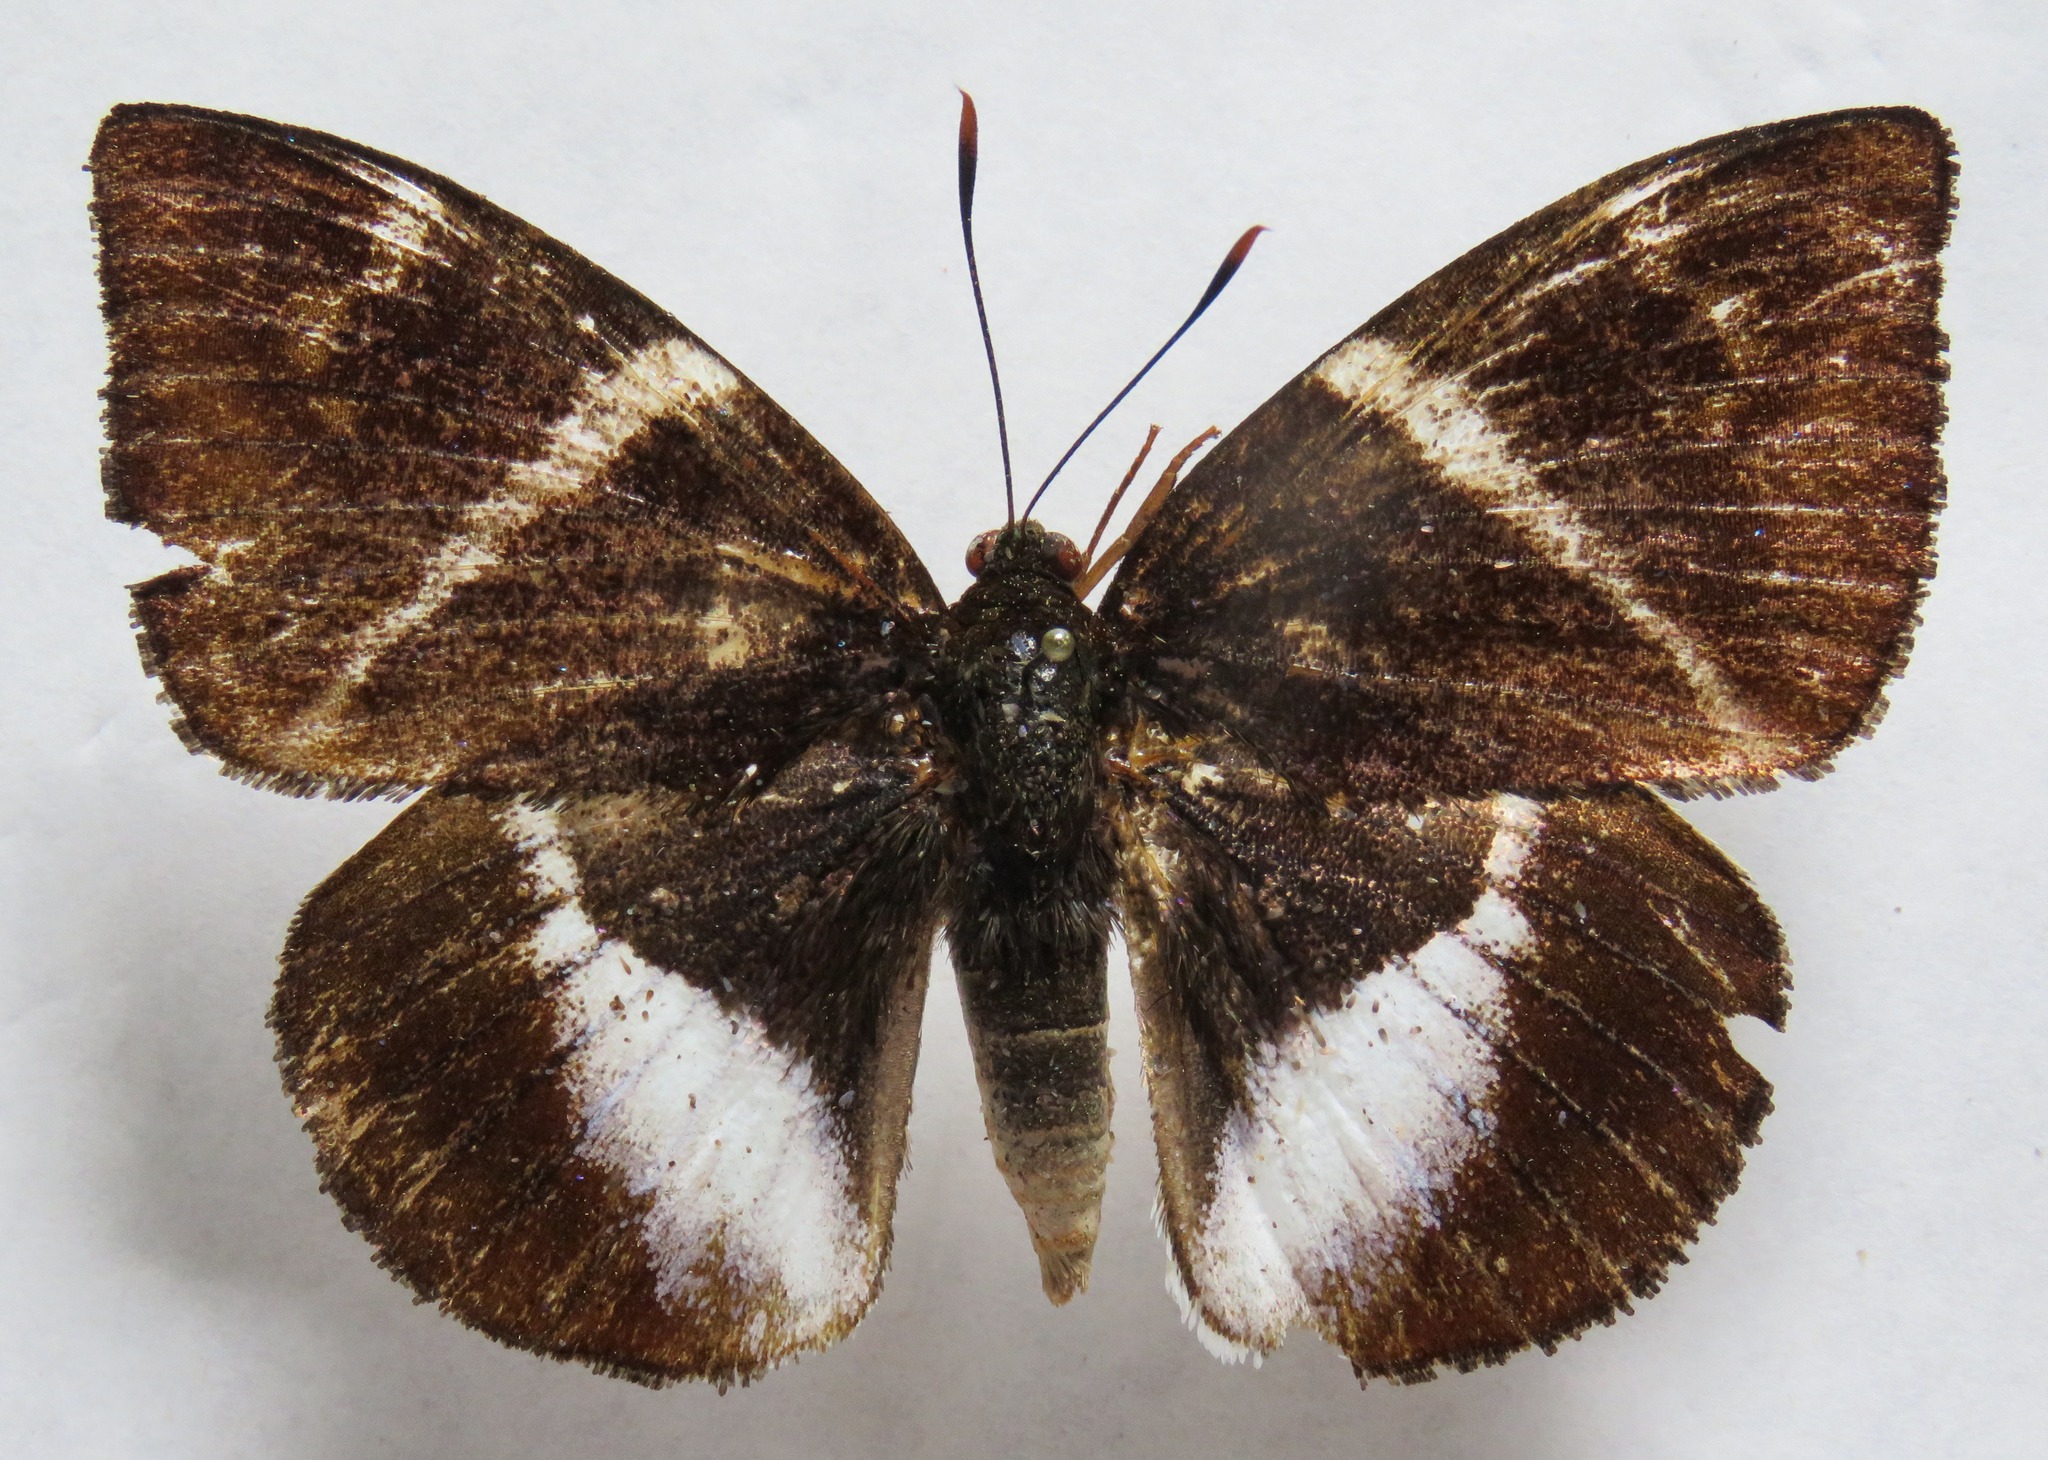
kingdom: Animalia
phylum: Arthropoda
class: Insecta
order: Lepidoptera
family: Castniidae
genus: Castniomera
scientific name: Castniomera atymnius
